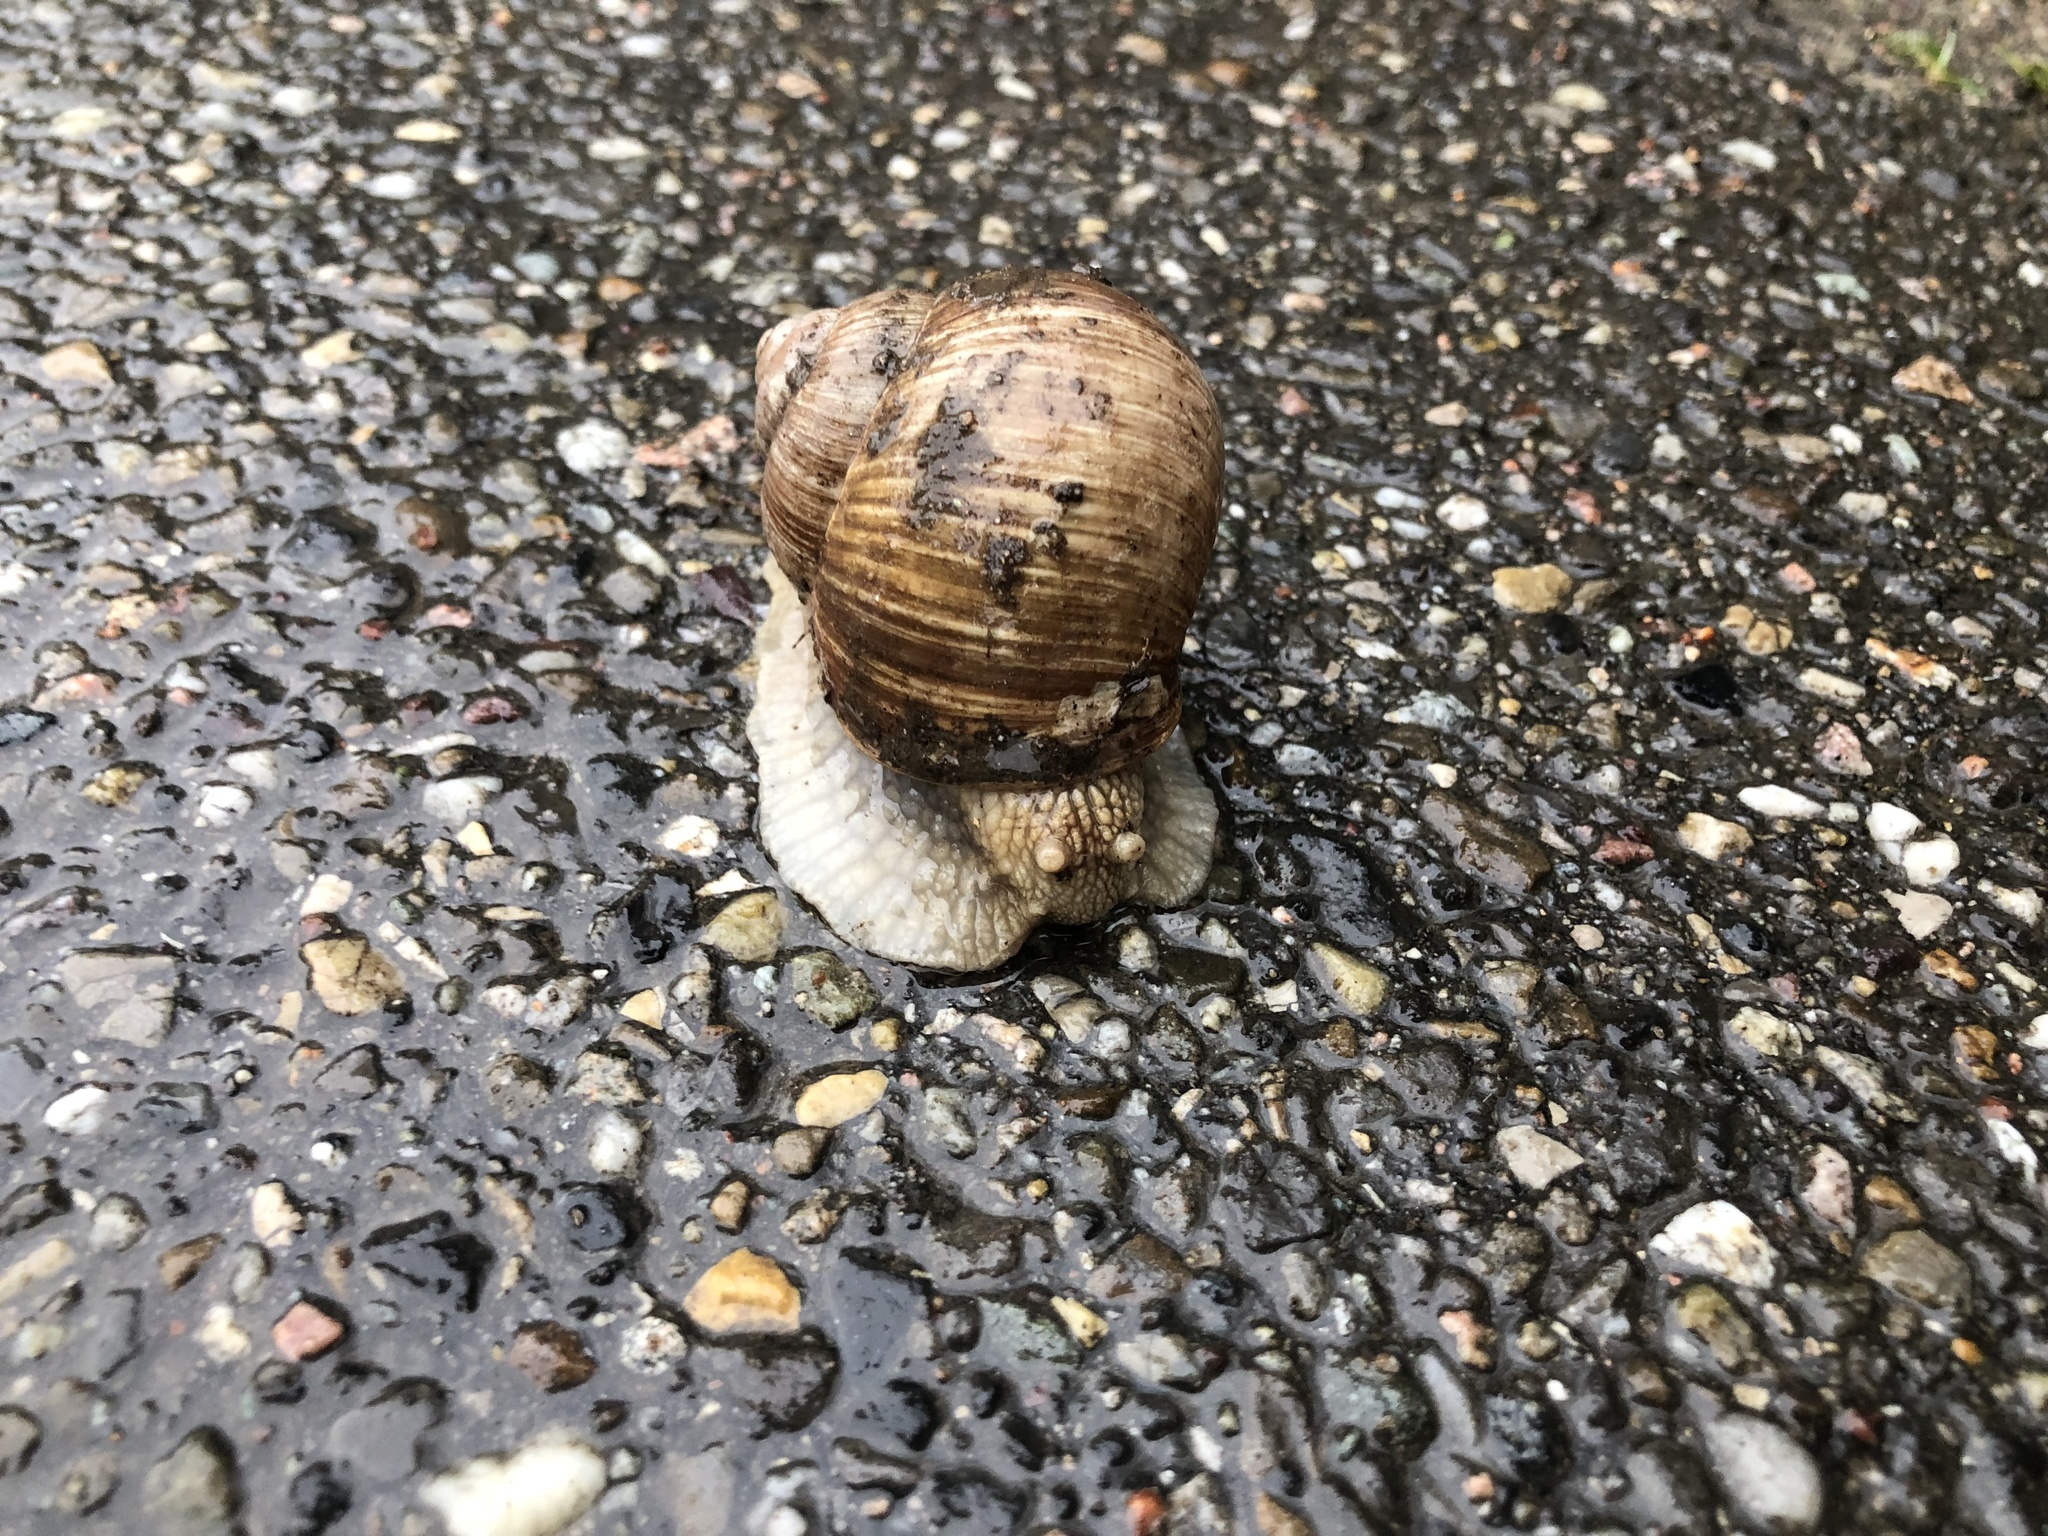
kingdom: Animalia
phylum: Mollusca
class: Gastropoda
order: Stylommatophora
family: Helicidae
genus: Helix
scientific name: Helix pomatia
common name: Roman snail
